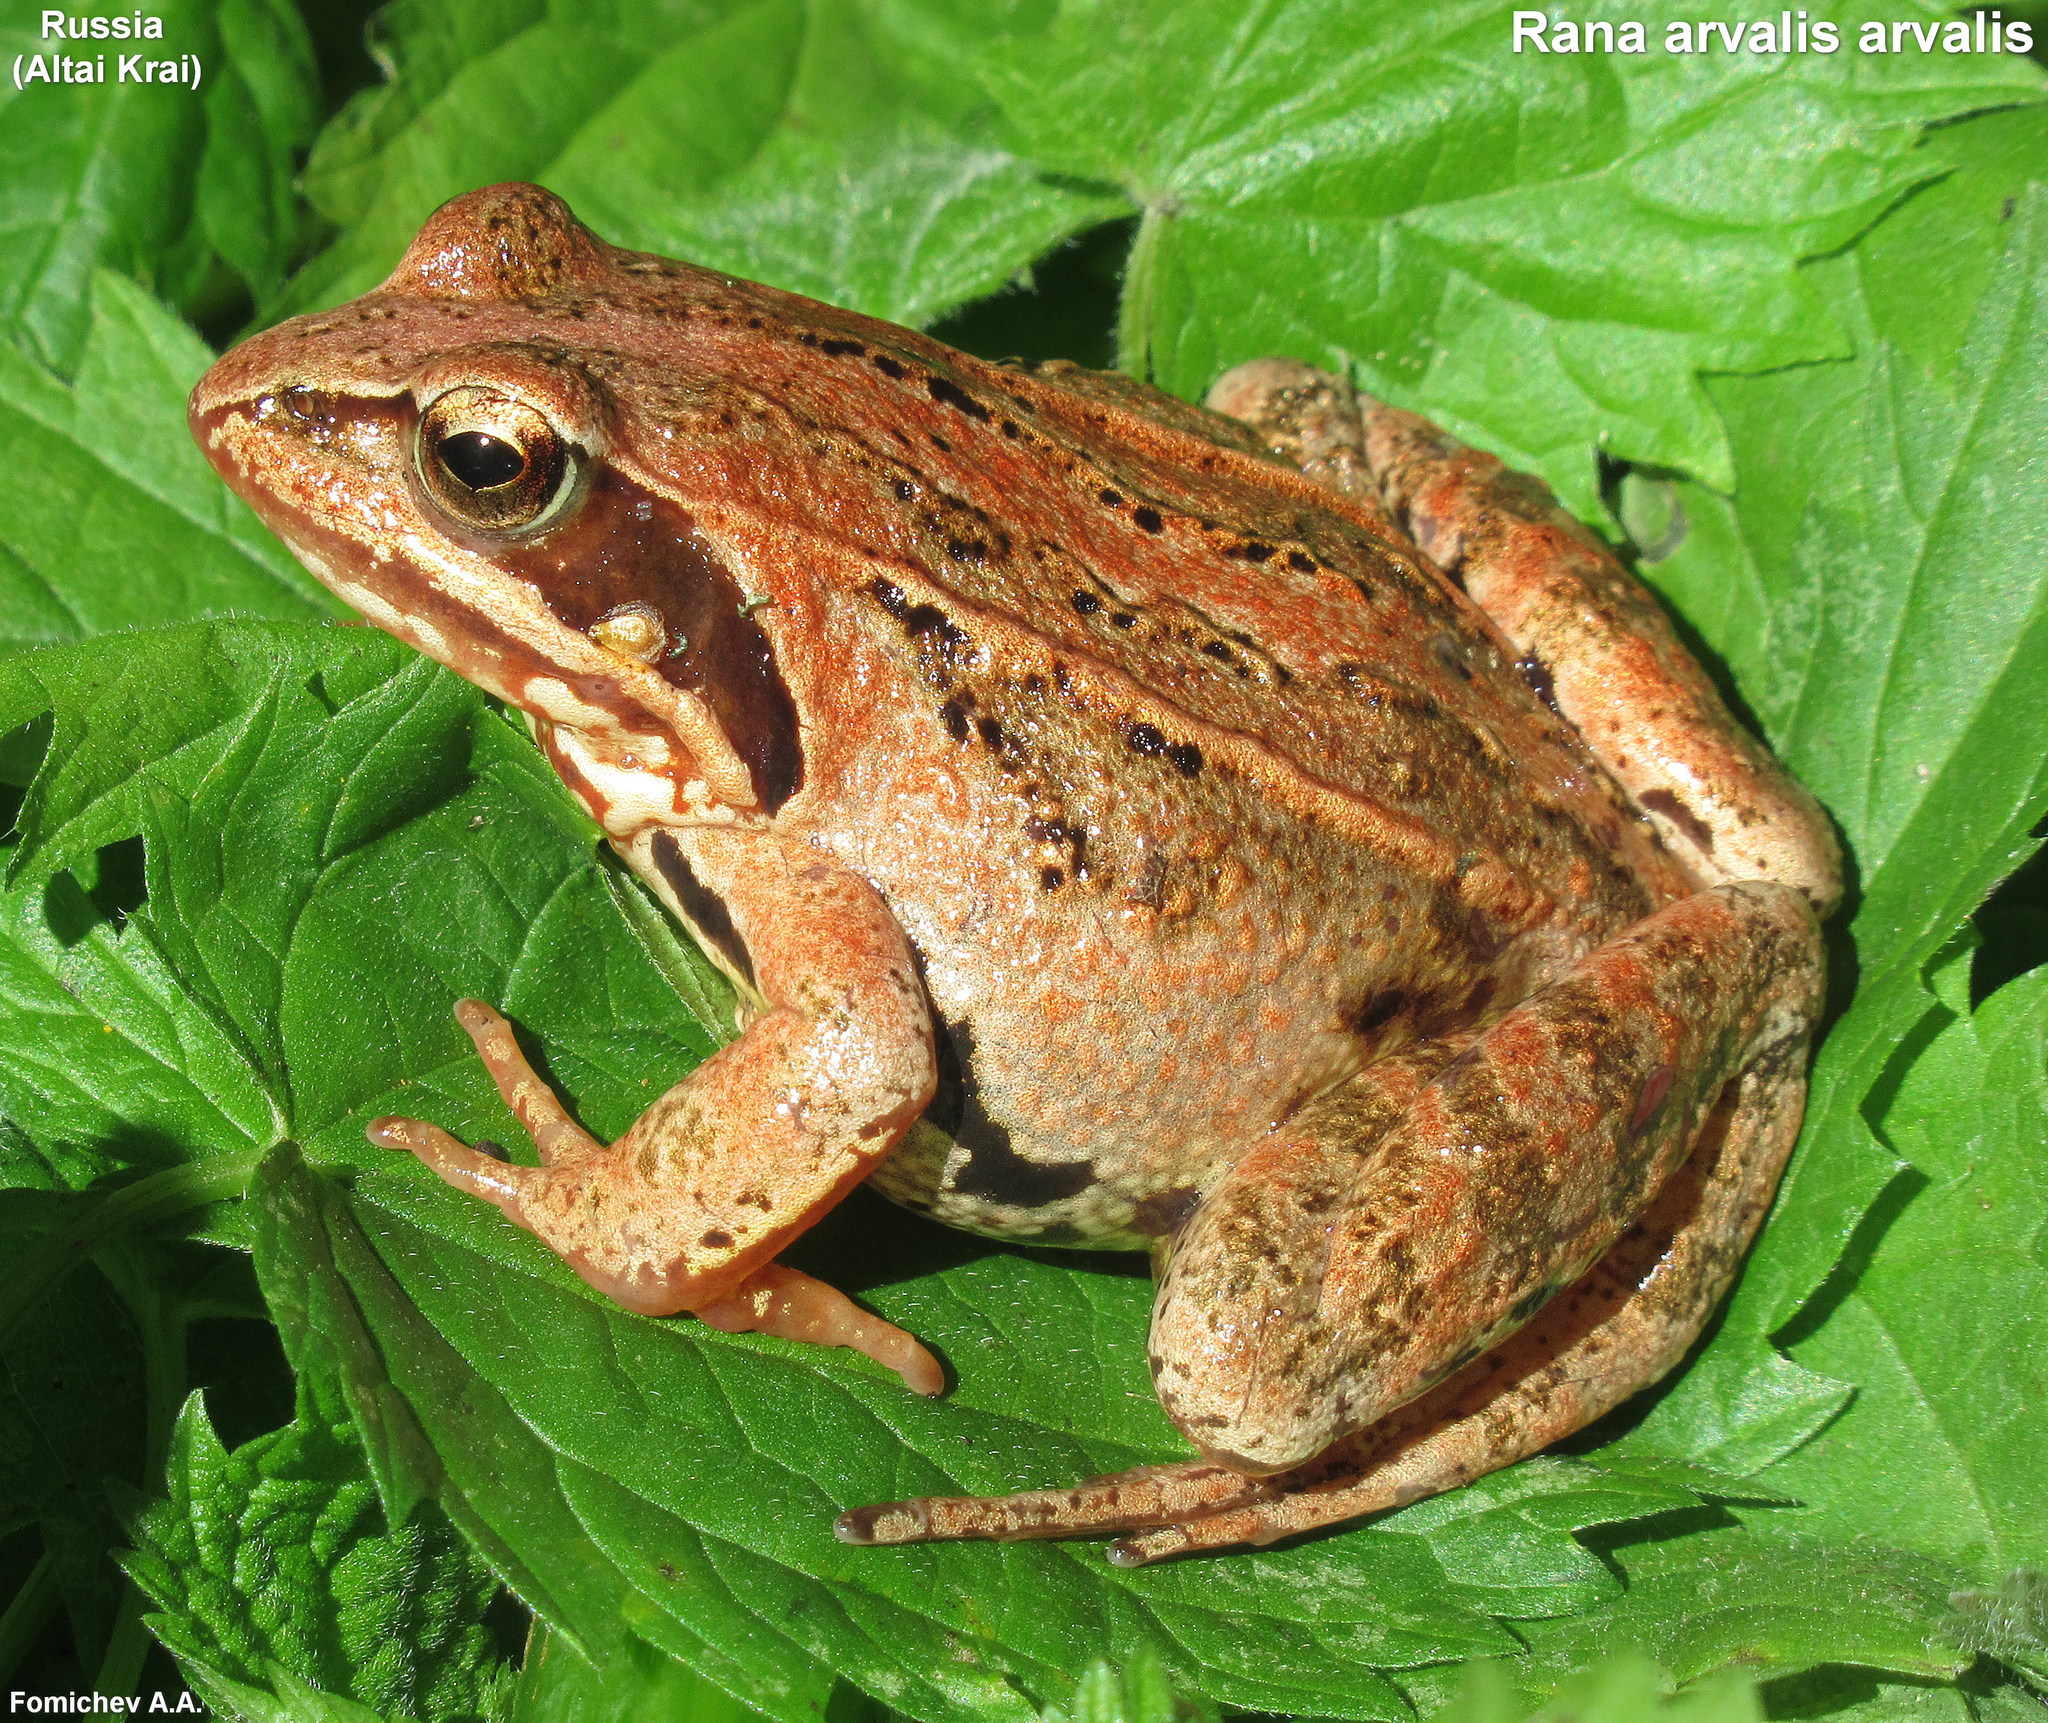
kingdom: Animalia
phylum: Chordata
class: Amphibia
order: Anura
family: Ranidae
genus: Rana
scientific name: Rana arvalis
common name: Moor frog
